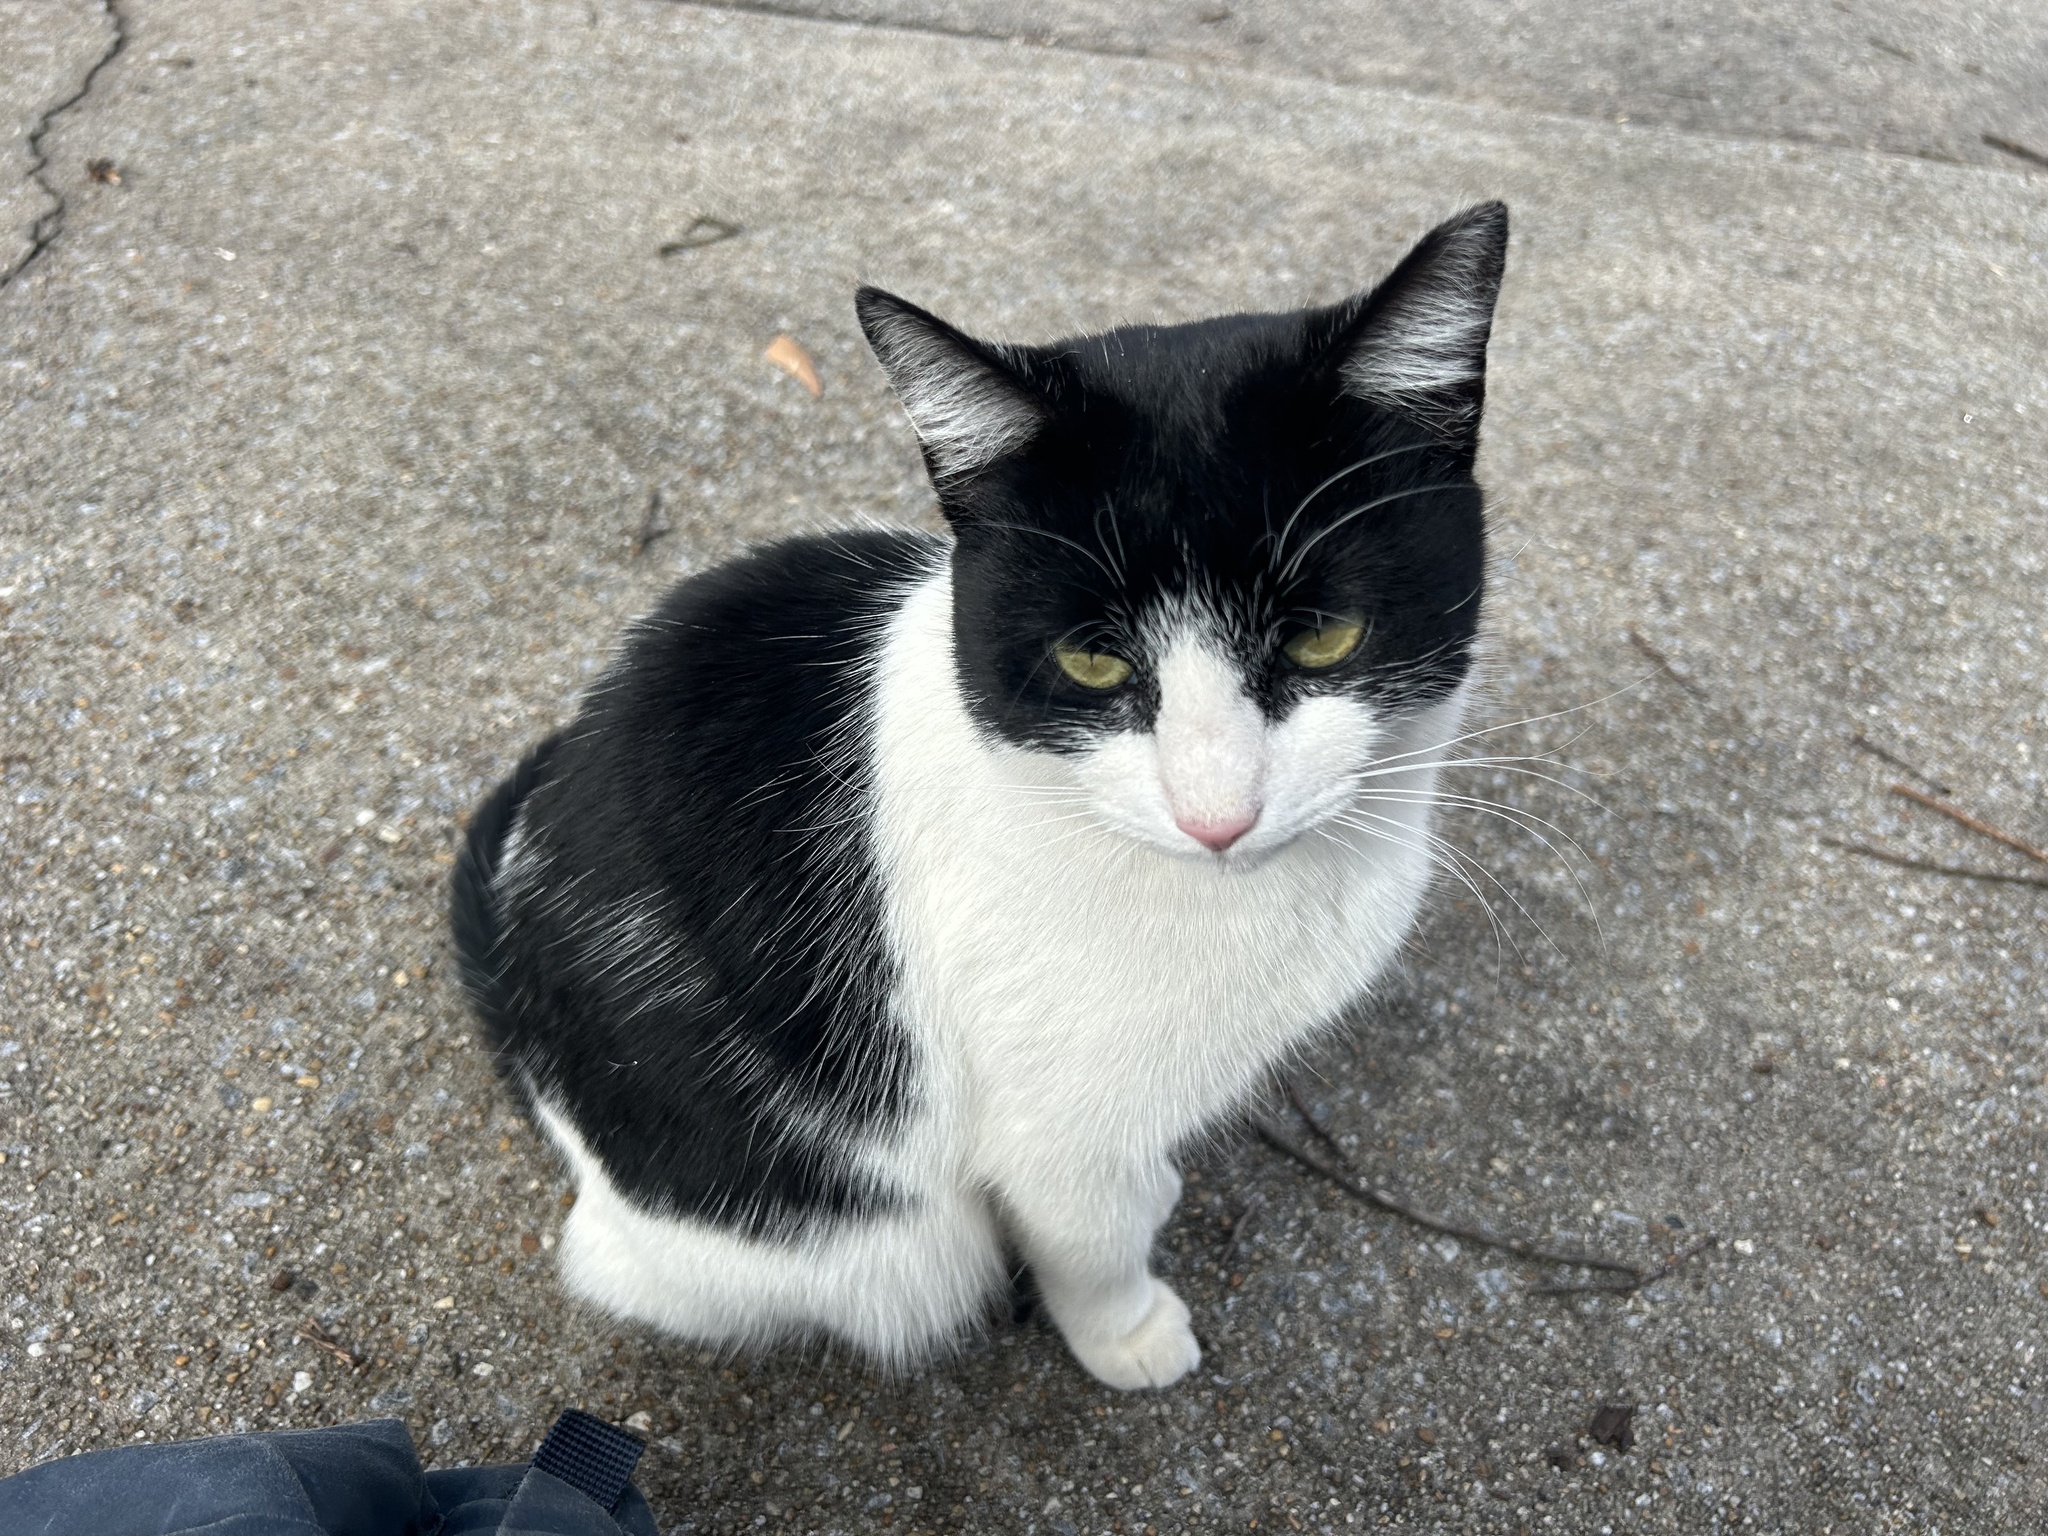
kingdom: Animalia
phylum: Chordata
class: Mammalia
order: Carnivora
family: Felidae
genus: Felis
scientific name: Felis catus
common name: Domestic cat
